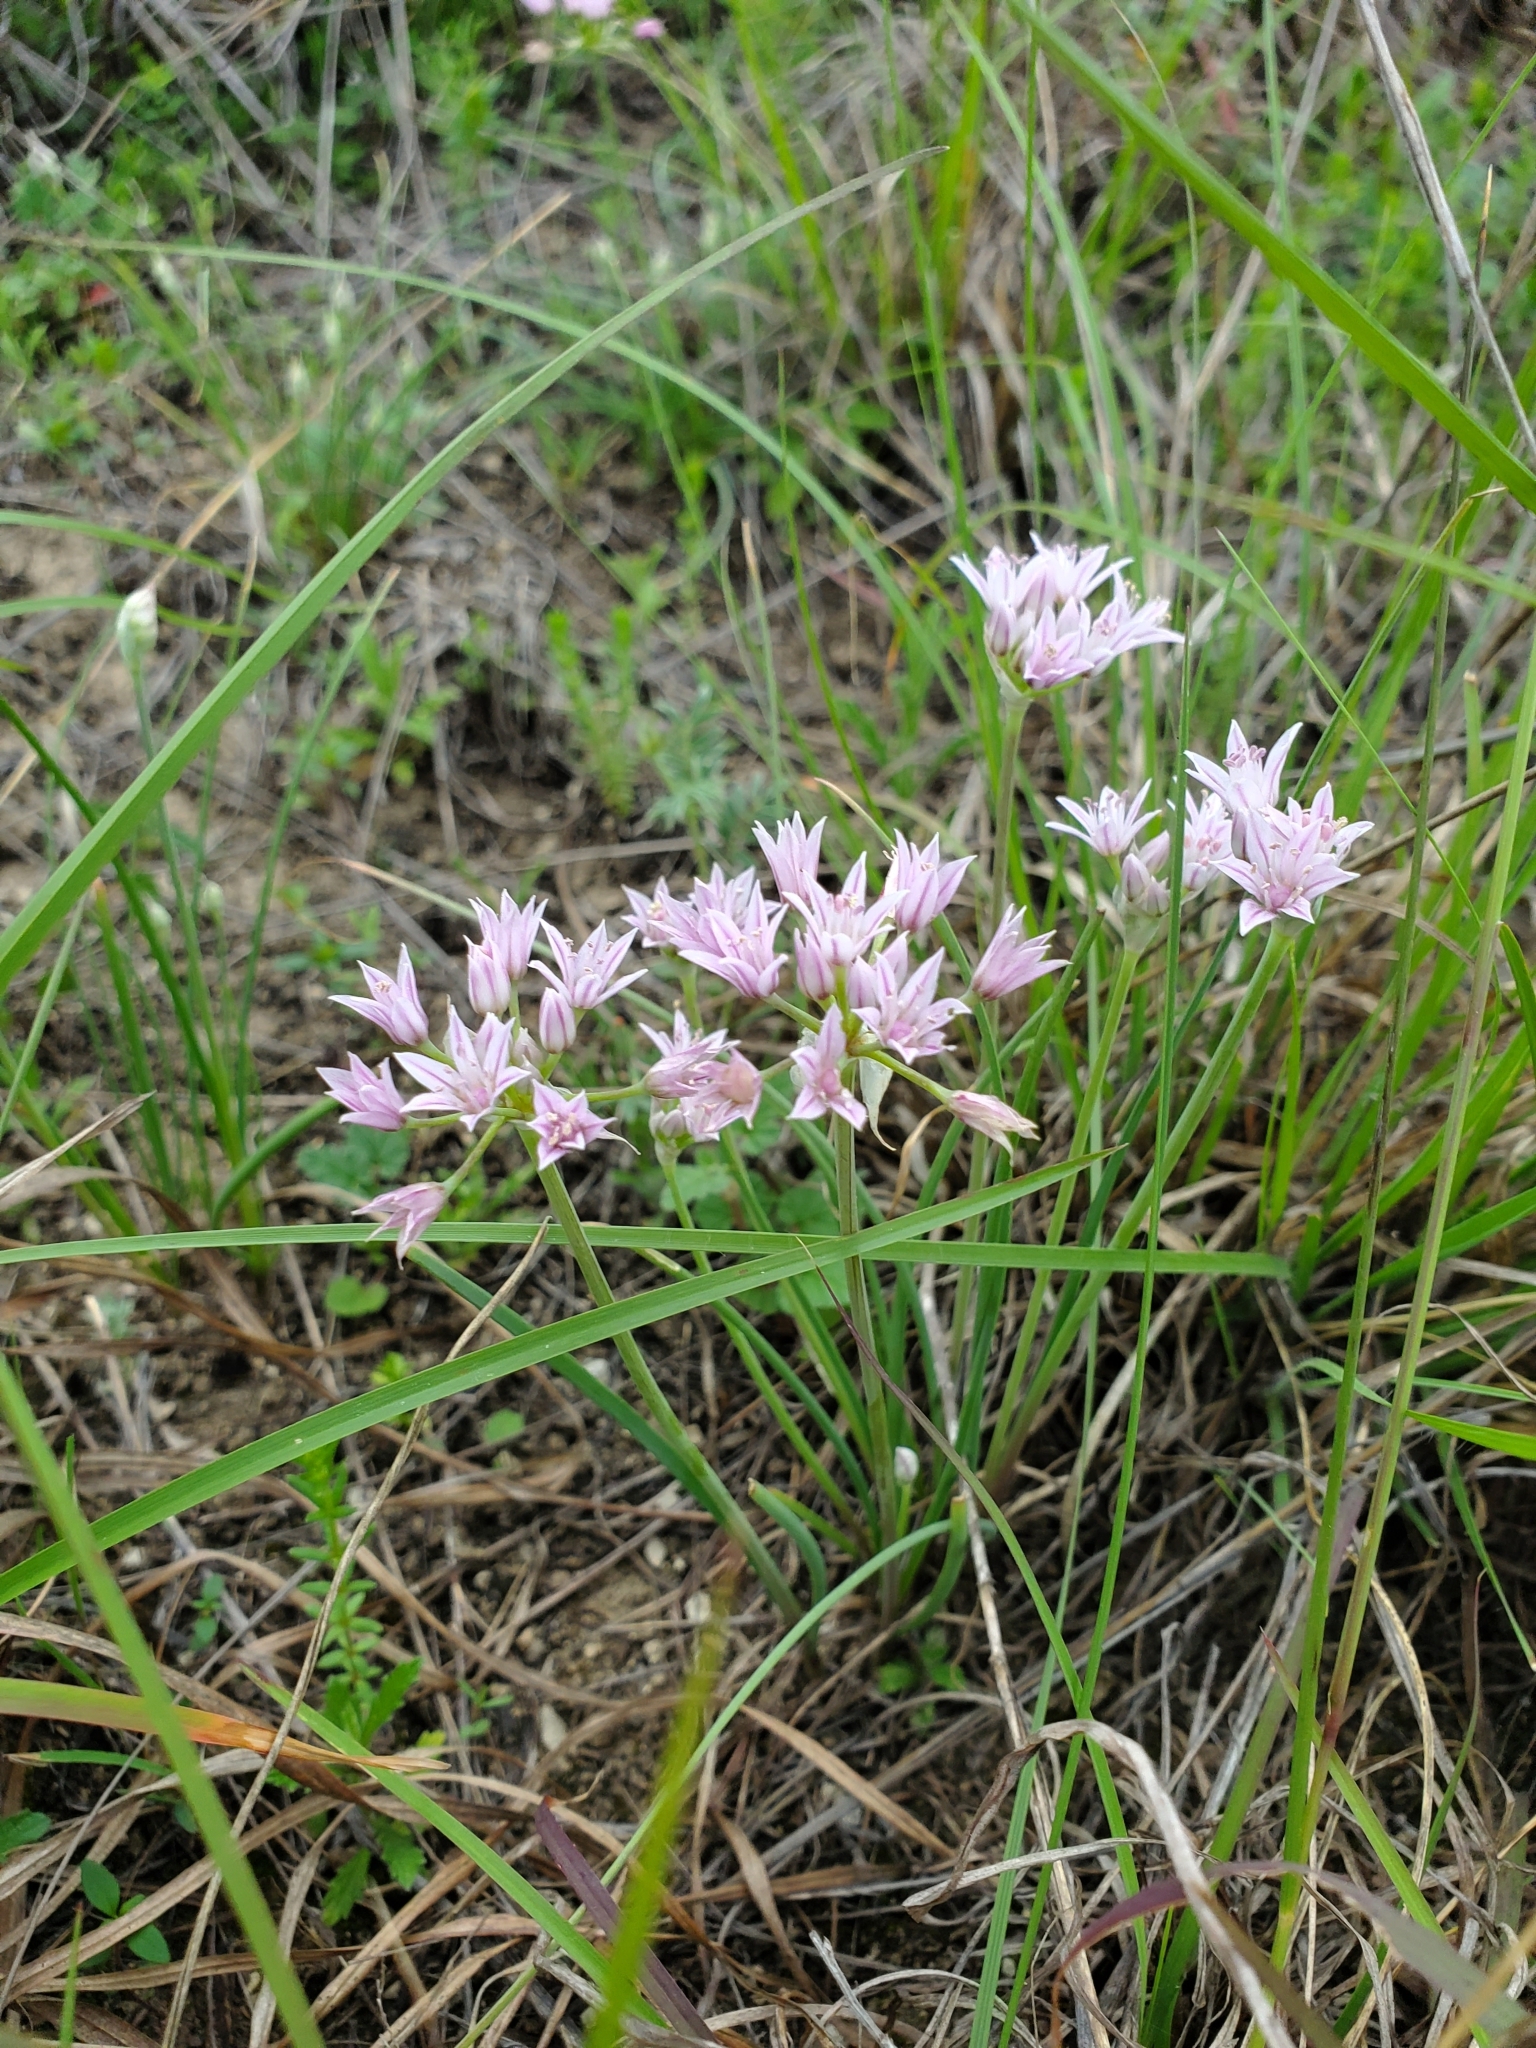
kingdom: Plantae
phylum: Tracheophyta
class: Liliopsida
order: Asparagales
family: Amaryllidaceae
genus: Allium
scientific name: Allium drummondii
